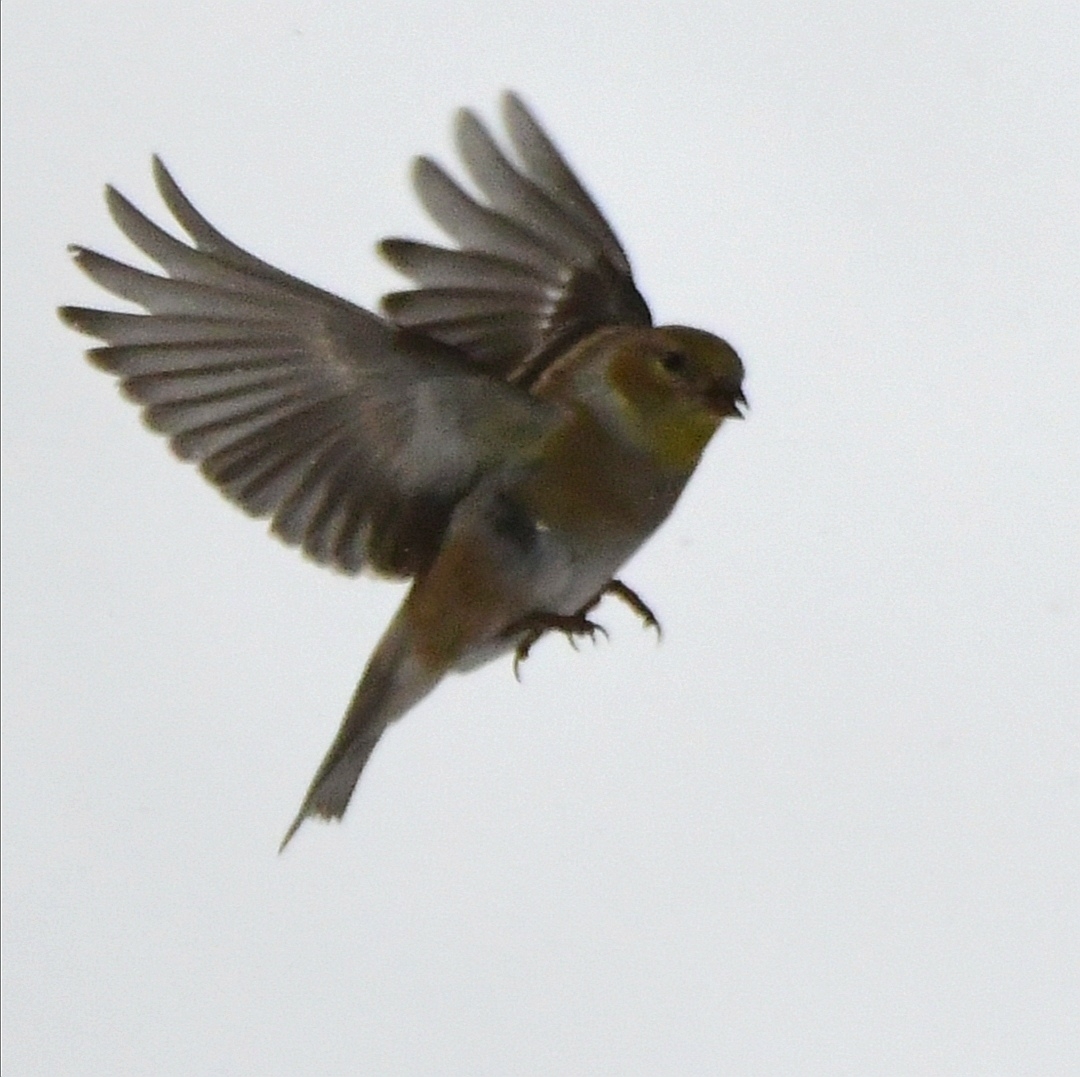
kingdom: Animalia
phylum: Chordata
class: Aves
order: Passeriformes
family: Fringillidae
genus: Spinus
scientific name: Spinus tristis
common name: American goldfinch
